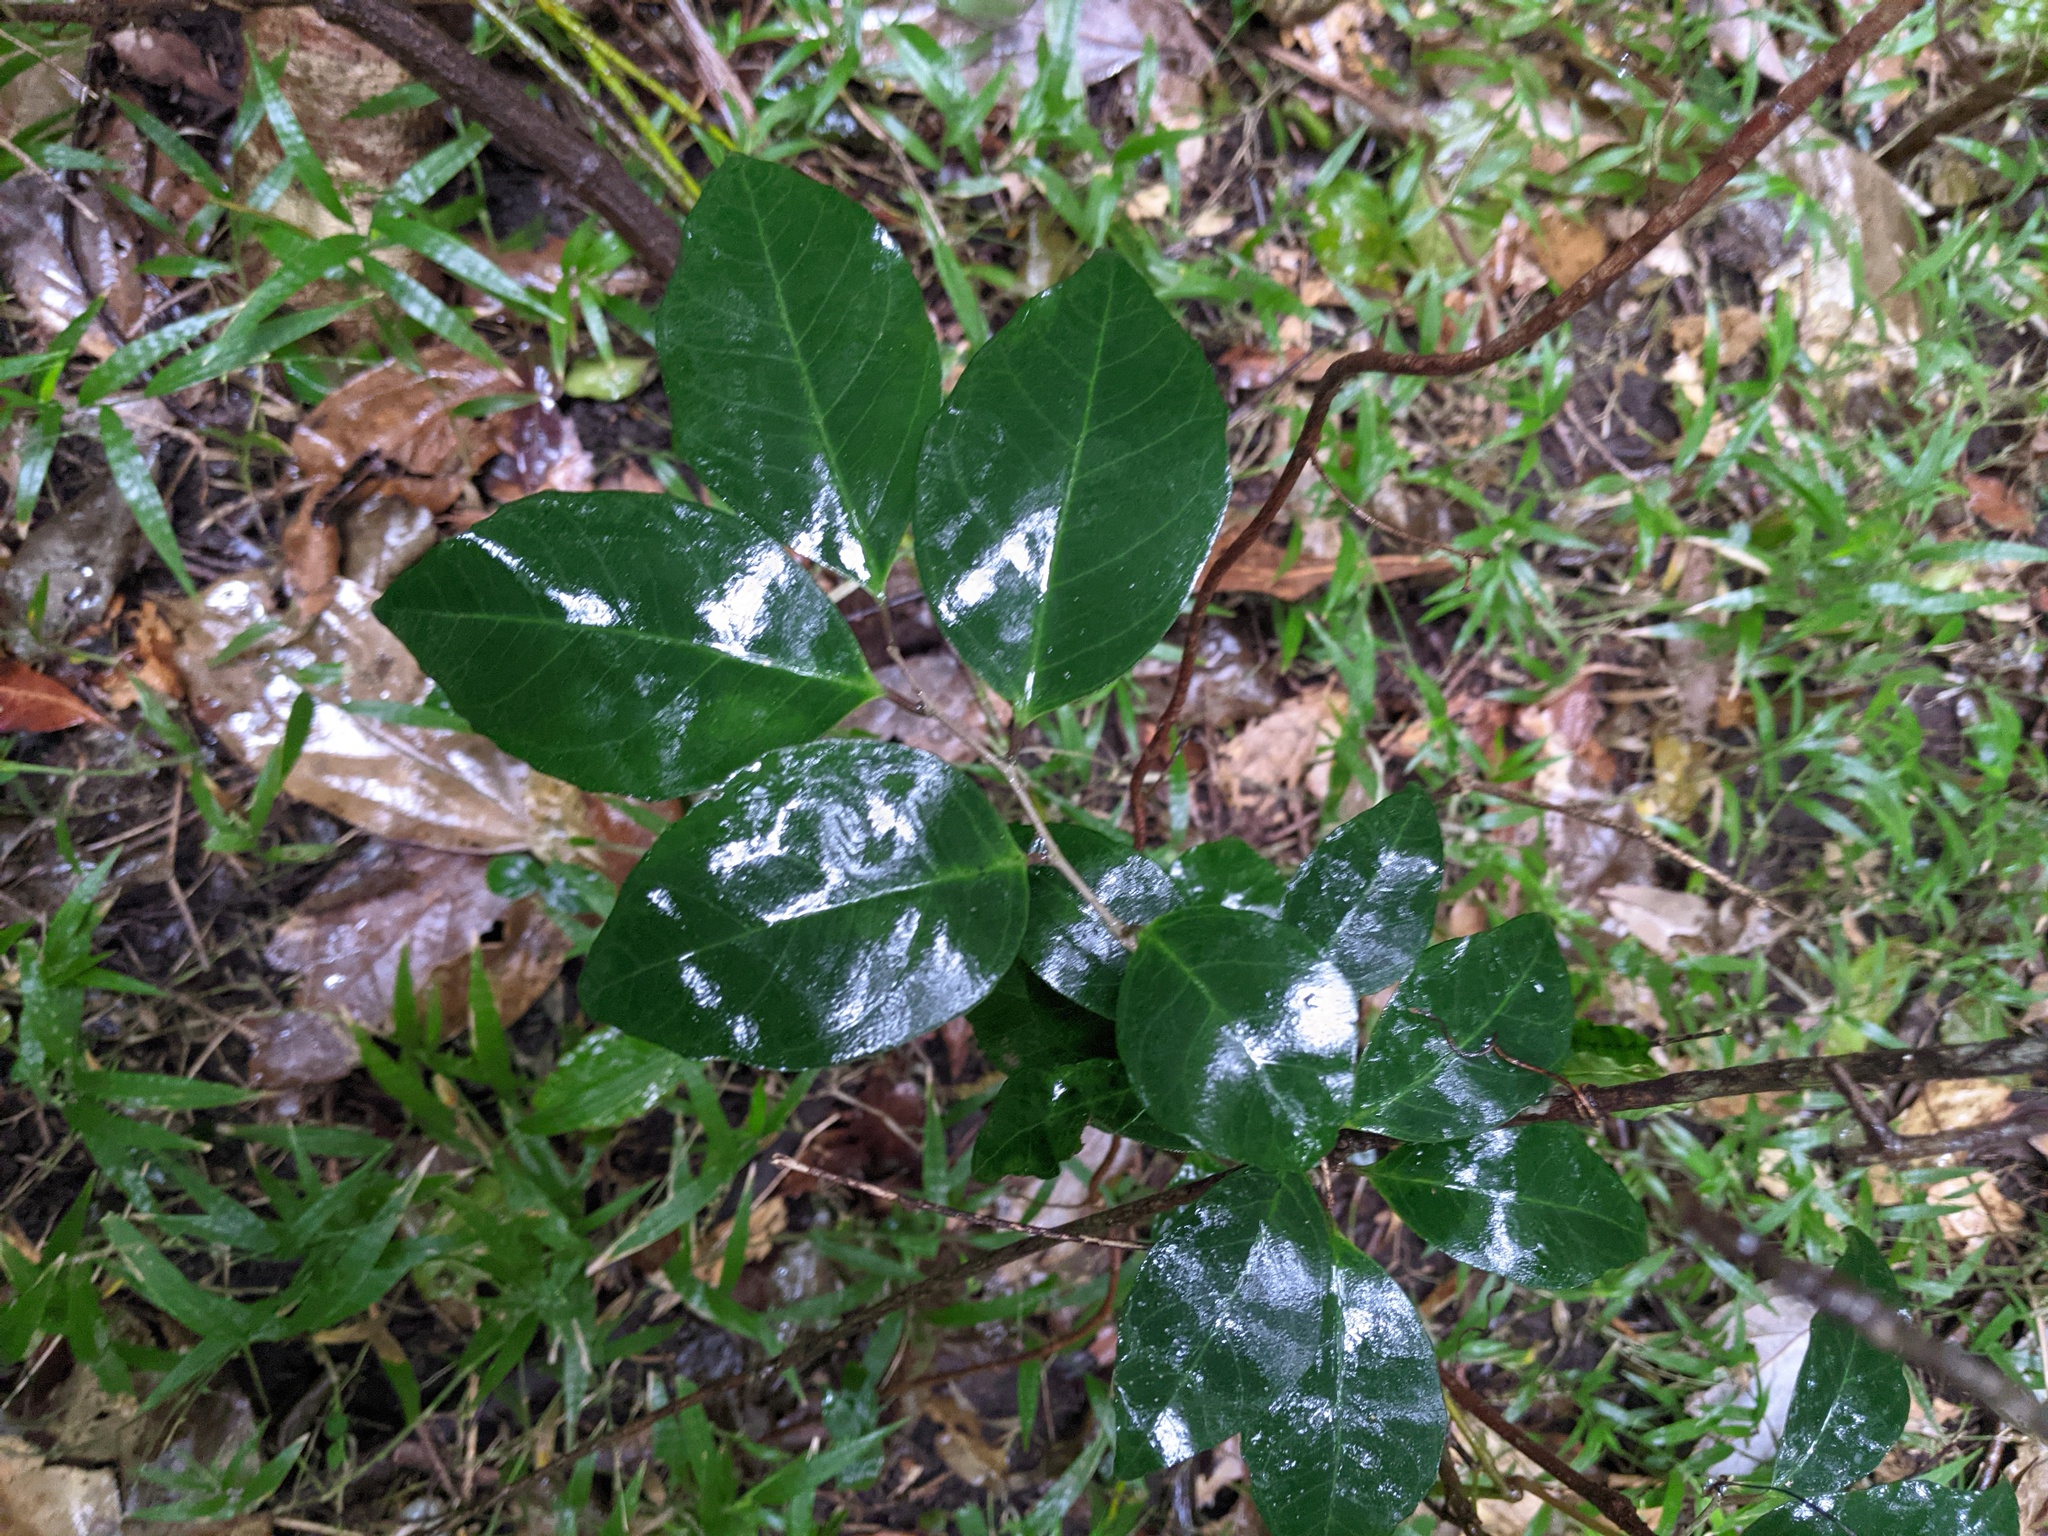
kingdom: Plantae
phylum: Tracheophyta
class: Magnoliopsida
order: Ericales
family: Primulaceae
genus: Embelia
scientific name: Embelia australiana
